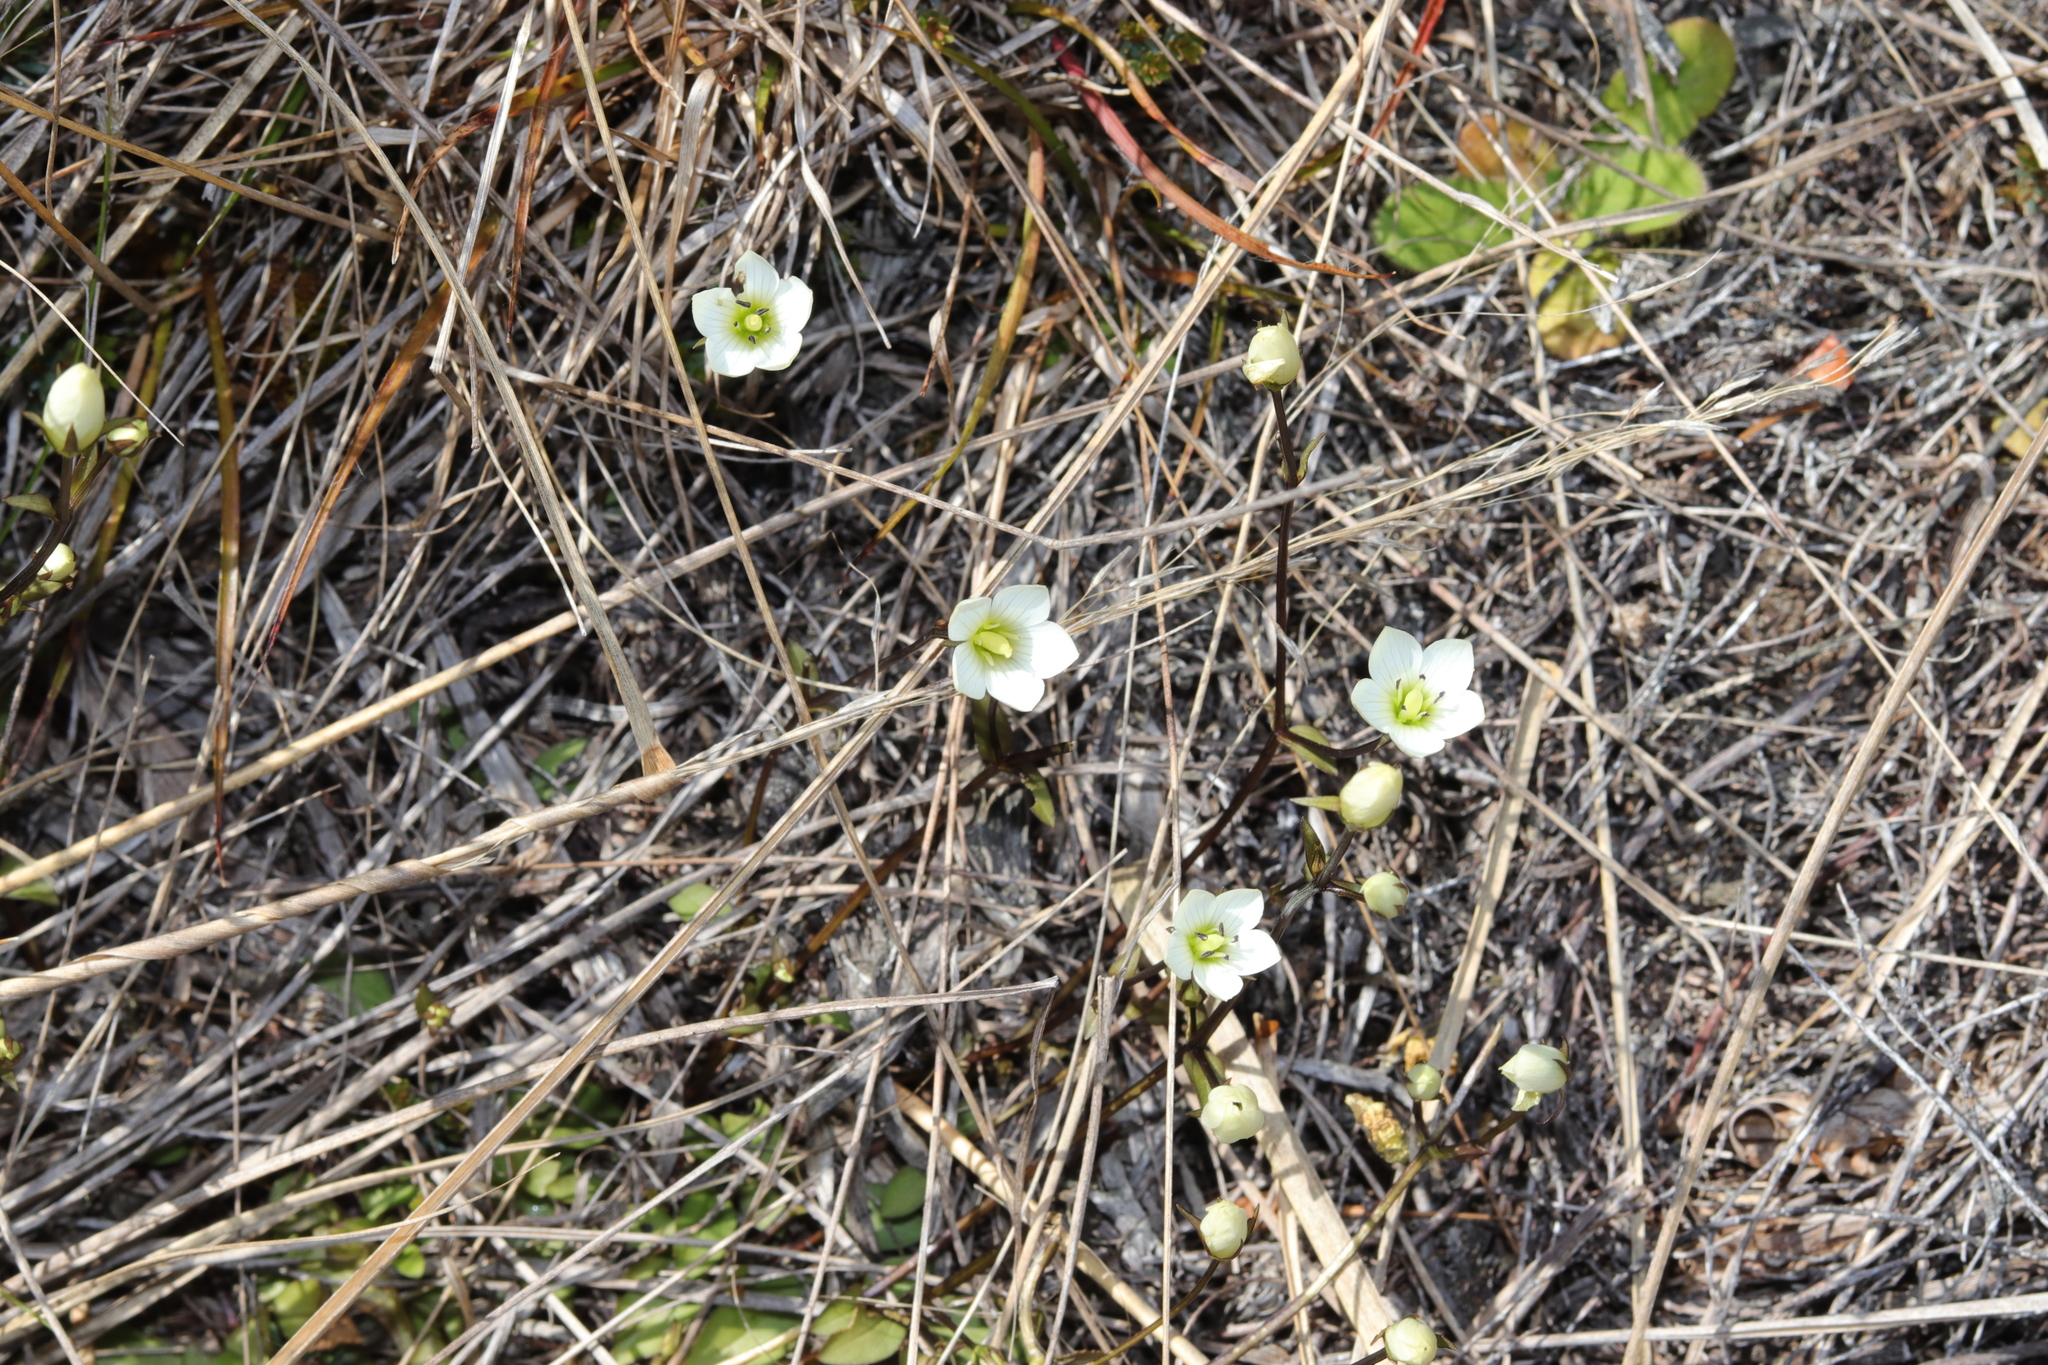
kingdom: Plantae
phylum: Tracheophyta
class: Magnoliopsida
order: Gentianales
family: Gentianaceae
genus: Gentianella
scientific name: Gentianella grisebachii
